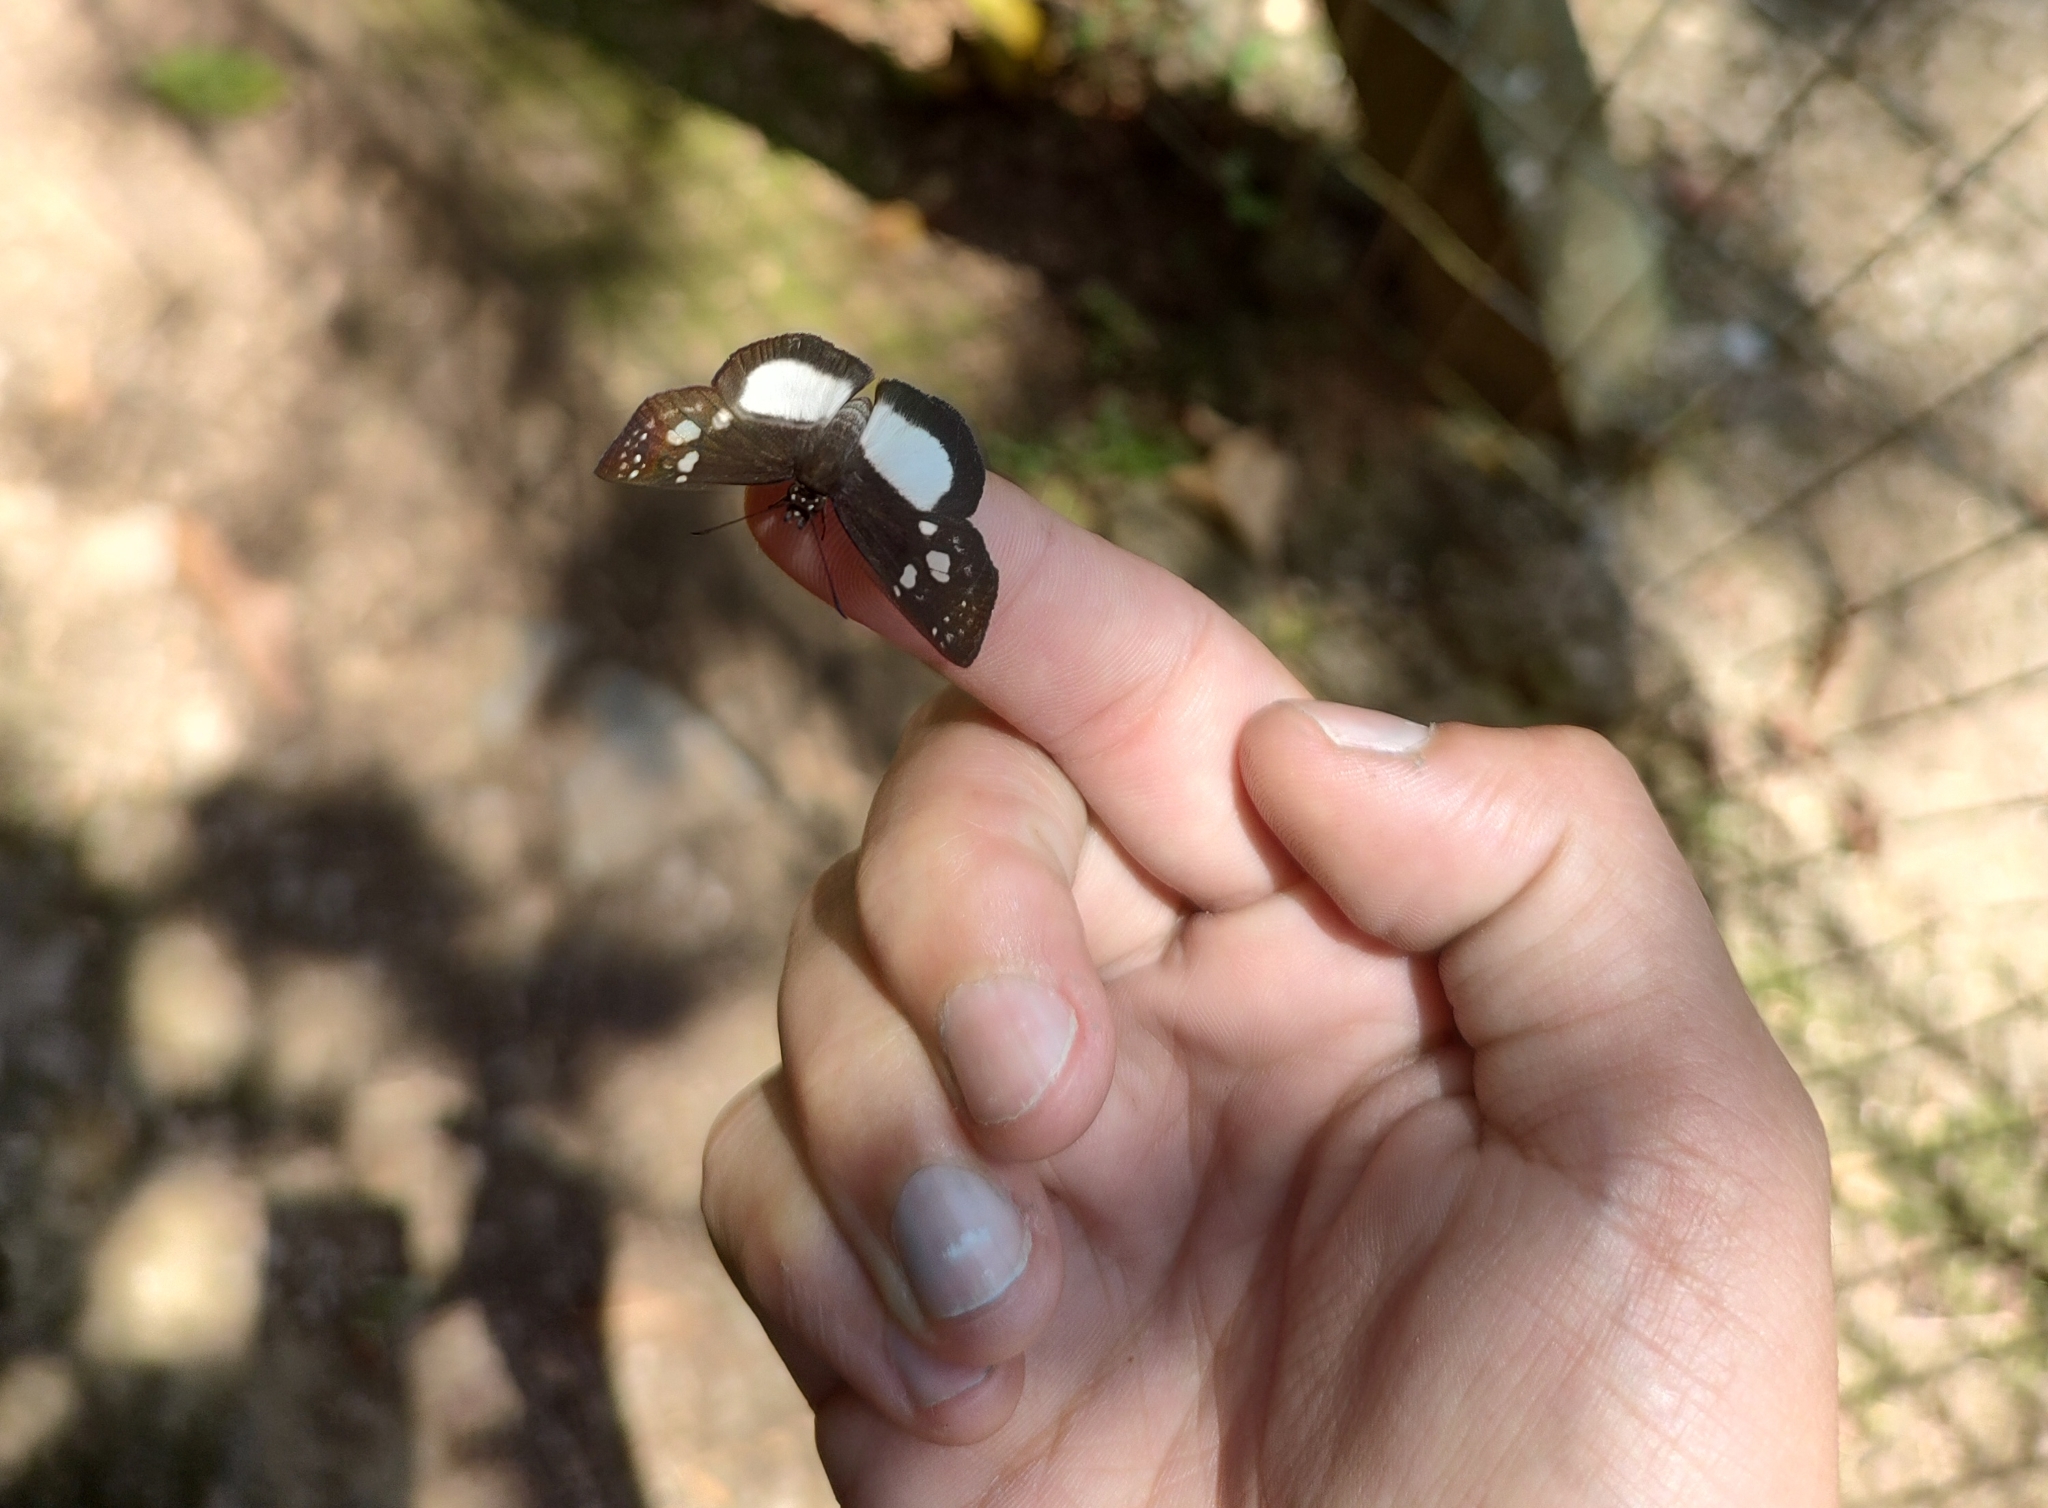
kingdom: Animalia
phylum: Arthropoda
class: Insecta
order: Lepidoptera
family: Hesperiidae
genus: Milanion
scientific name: Milanion leucaspis
